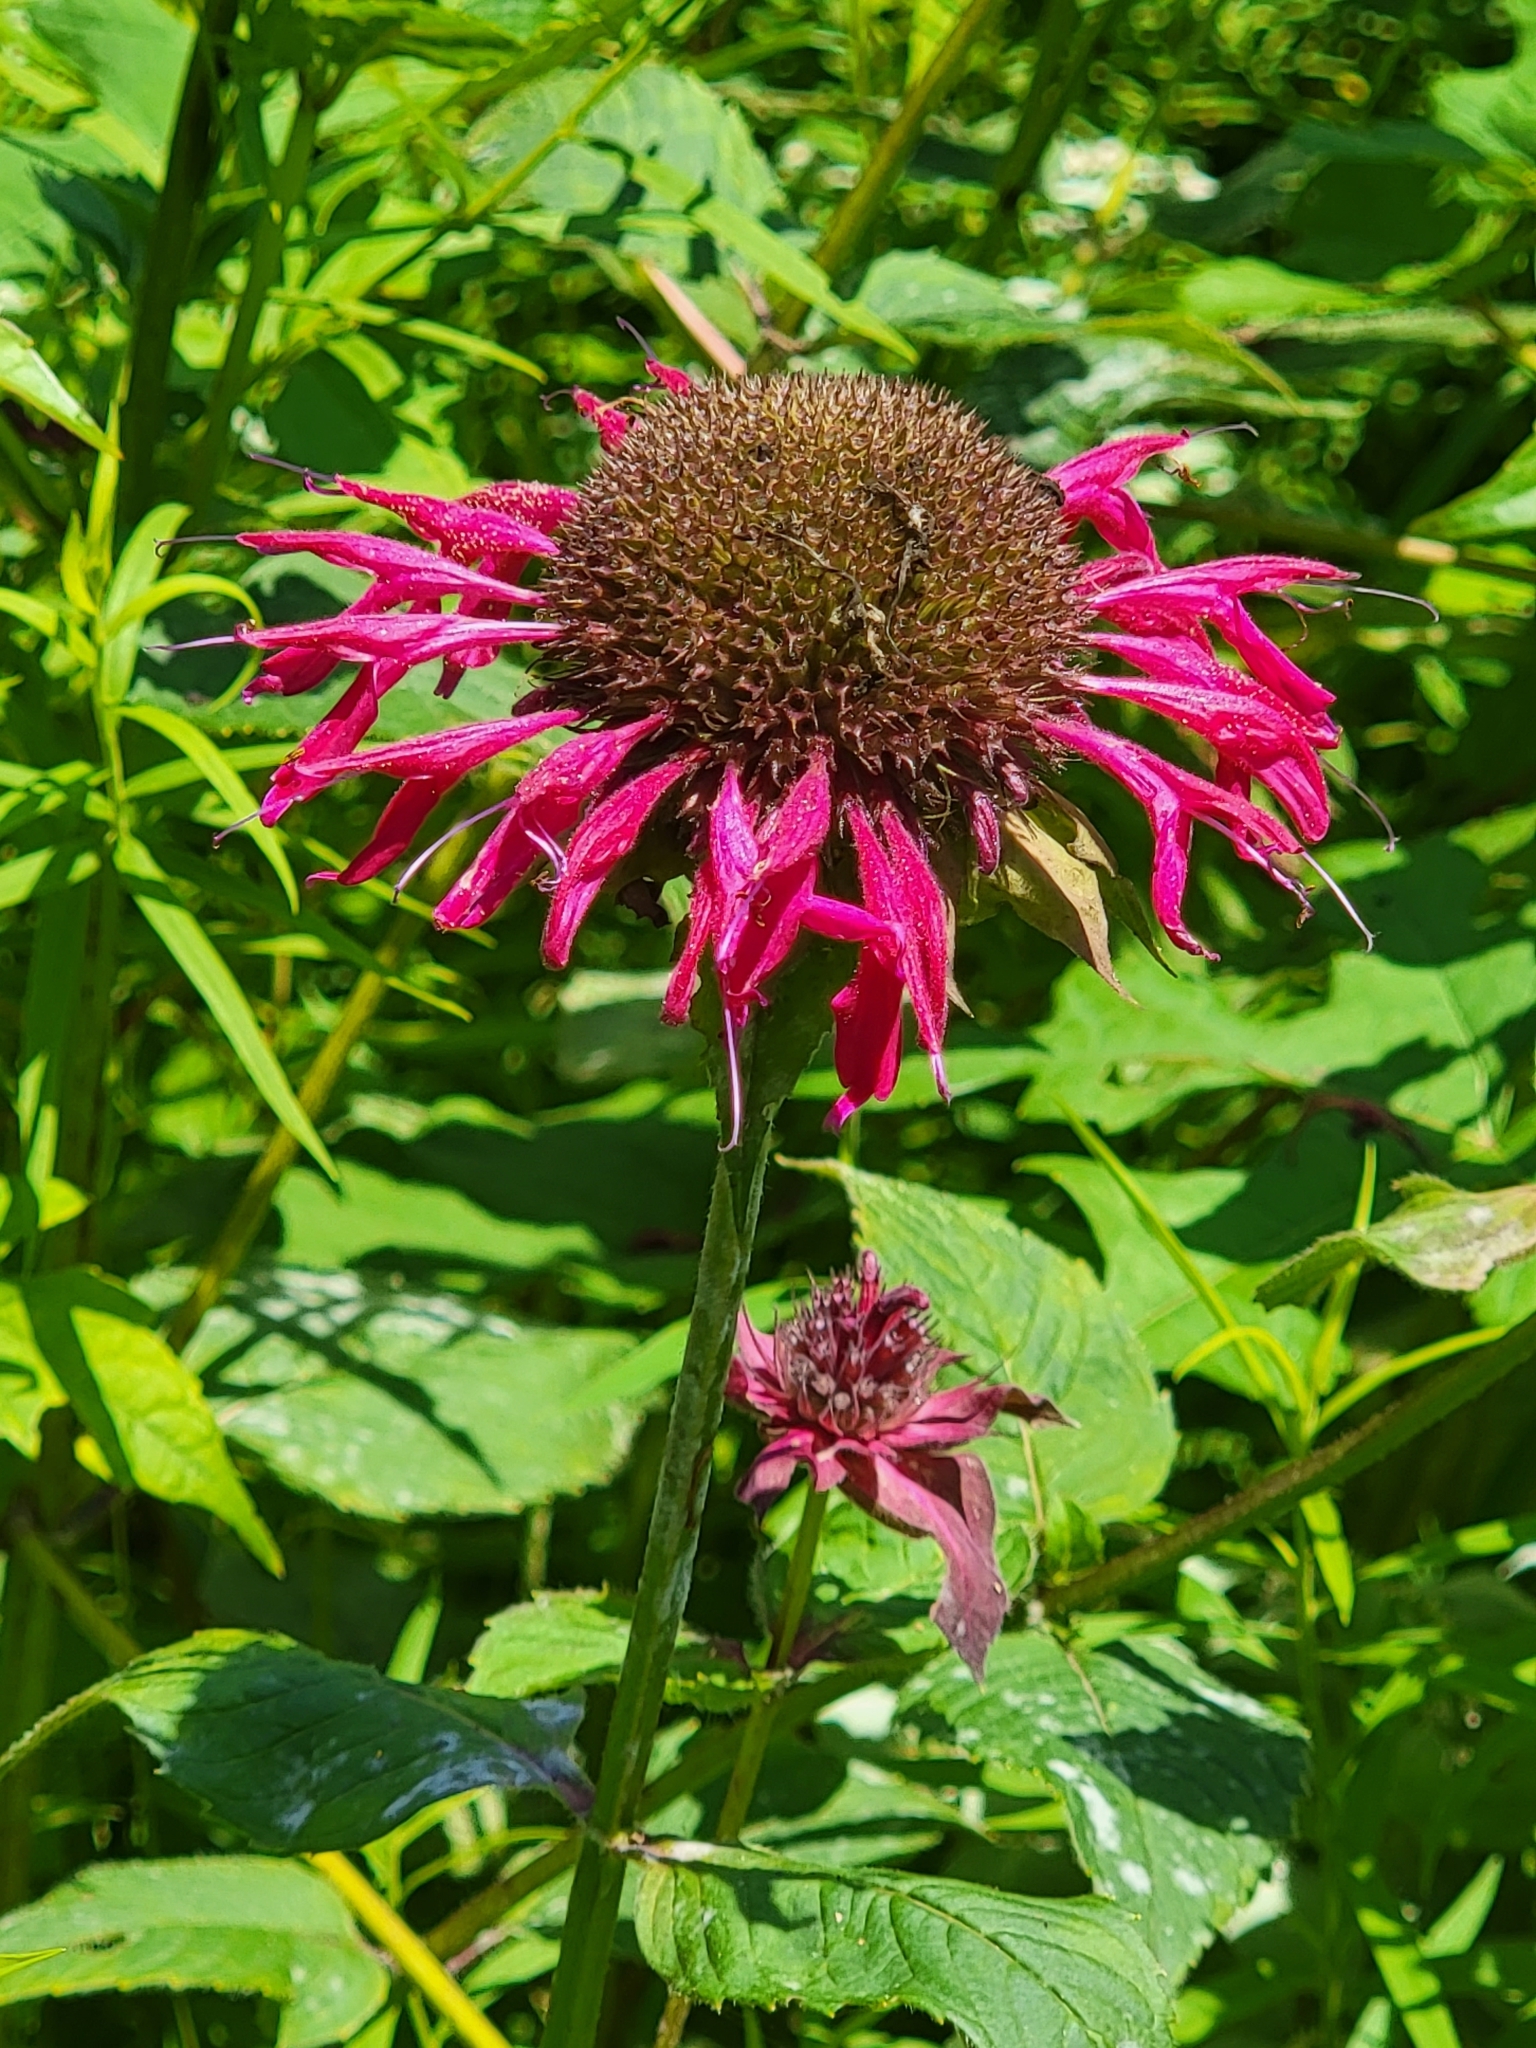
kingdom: Plantae
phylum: Tracheophyta
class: Magnoliopsida
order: Lamiales
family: Lamiaceae
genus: Monarda
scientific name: Monarda didyma
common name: Beebalm
